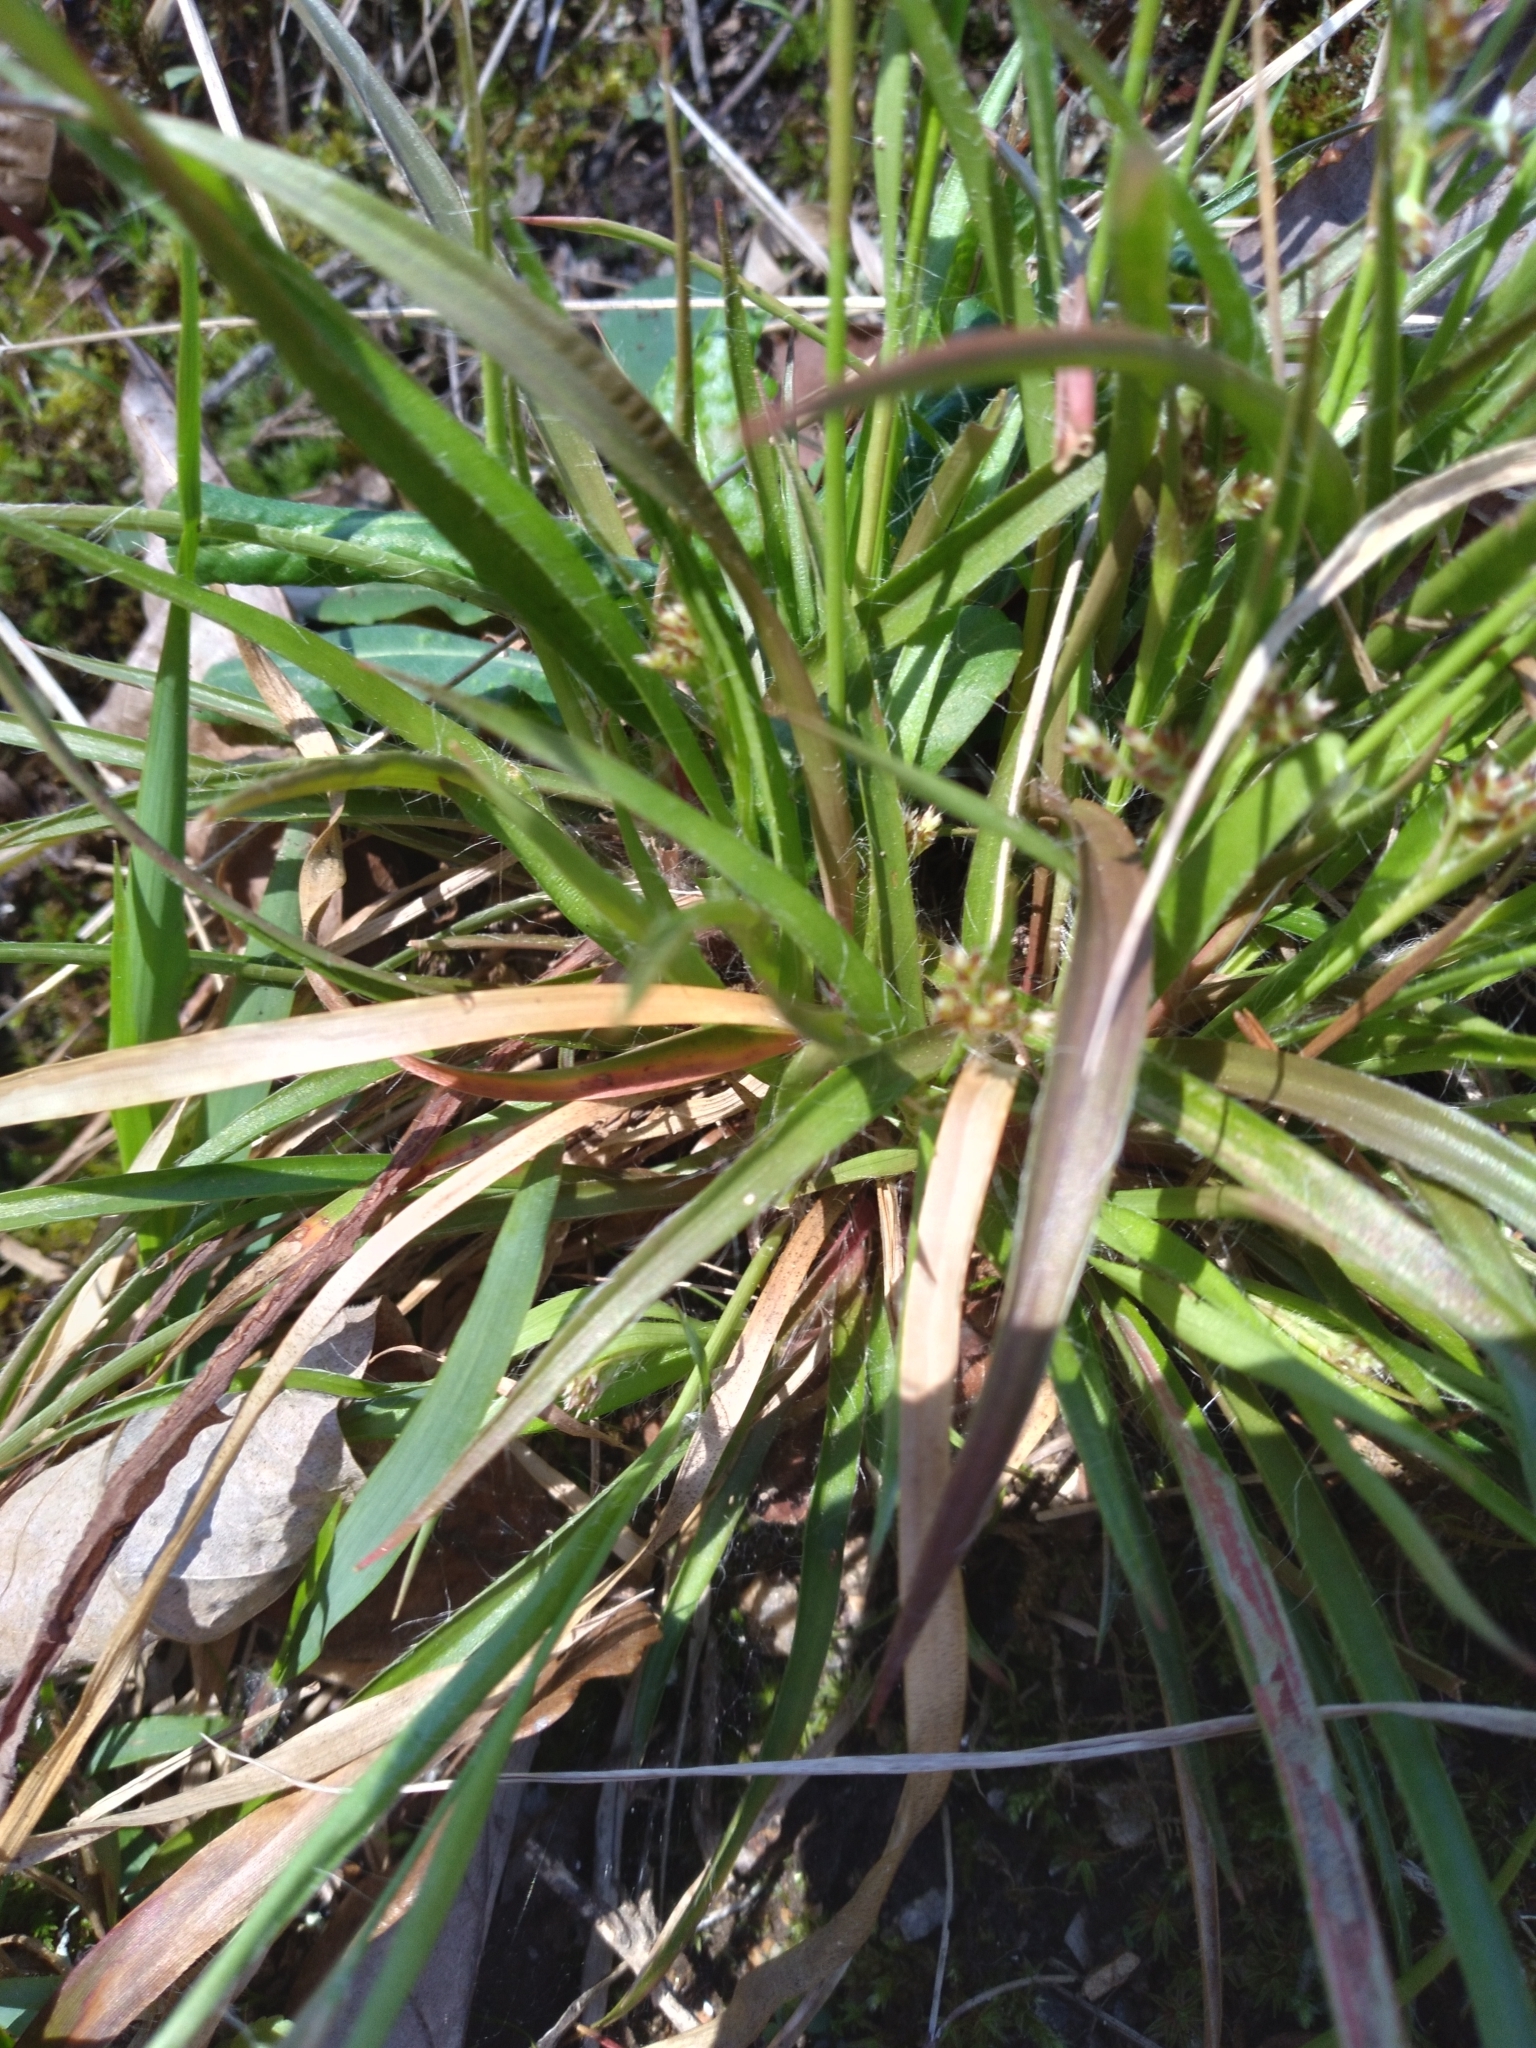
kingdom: Plantae
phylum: Tracheophyta
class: Liliopsida
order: Poales
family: Juncaceae
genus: Luzula
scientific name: Luzula echinata
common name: Hedgehog woodrush
